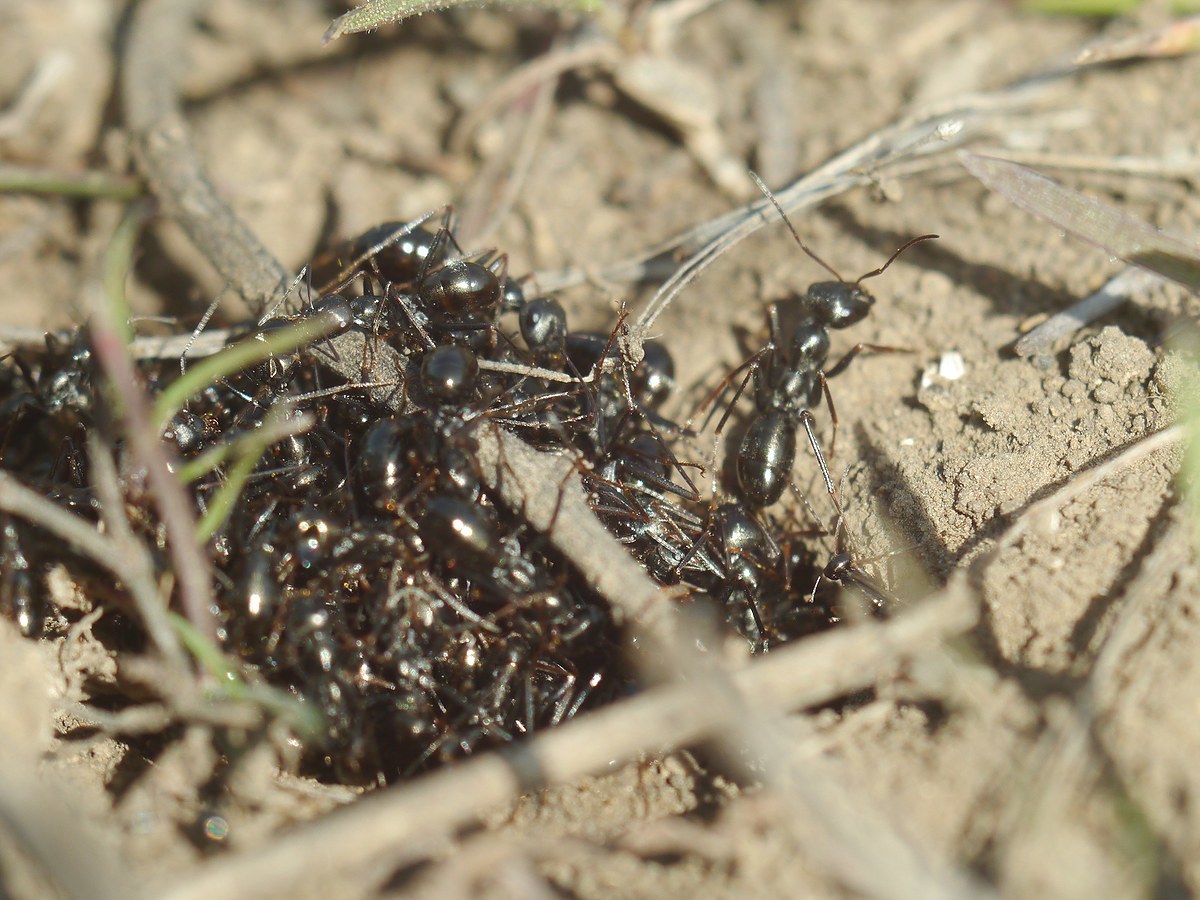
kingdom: Animalia
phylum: Arthropoda
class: Insecta
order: Hymenoptera
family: Formicidae
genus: Cataglyphis
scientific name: Cataglyphis aenescens
